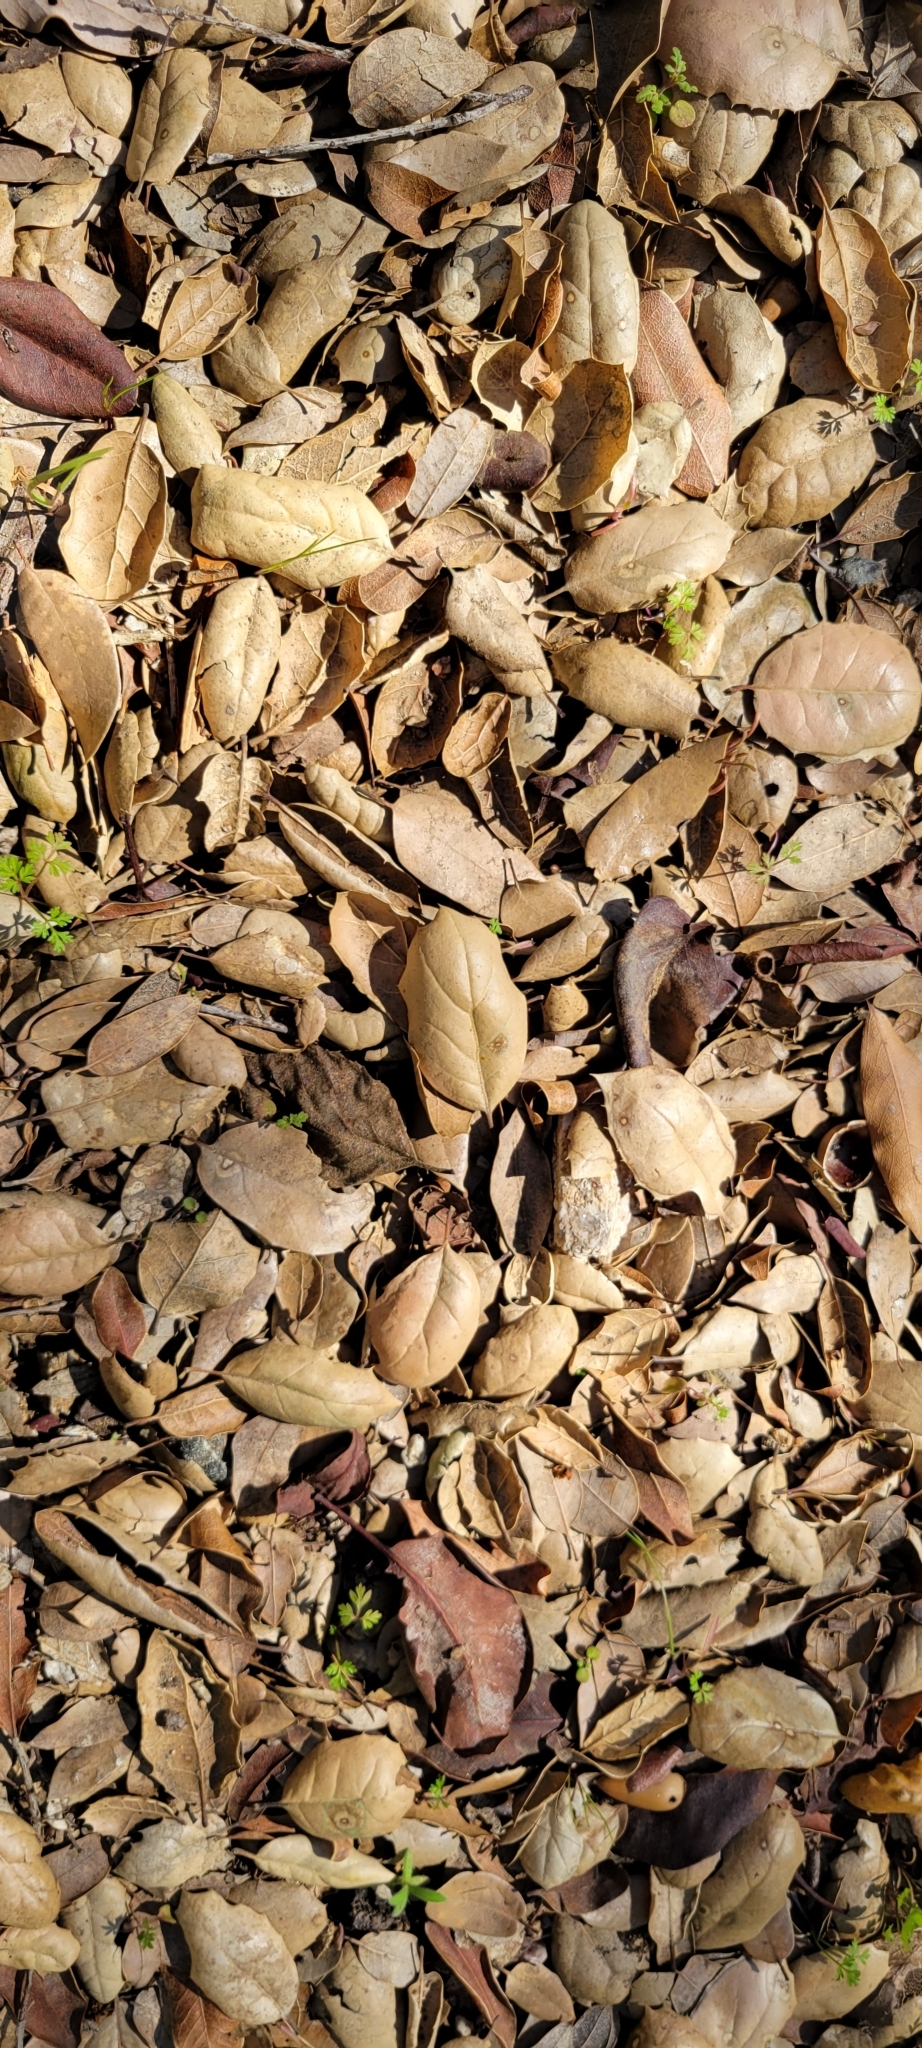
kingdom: Plantae
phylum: Tracheophyta
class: Magnoliopsida
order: Fagales
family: Fagaceae
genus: Quercus
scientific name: Quercus agrifolia
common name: California live oak
